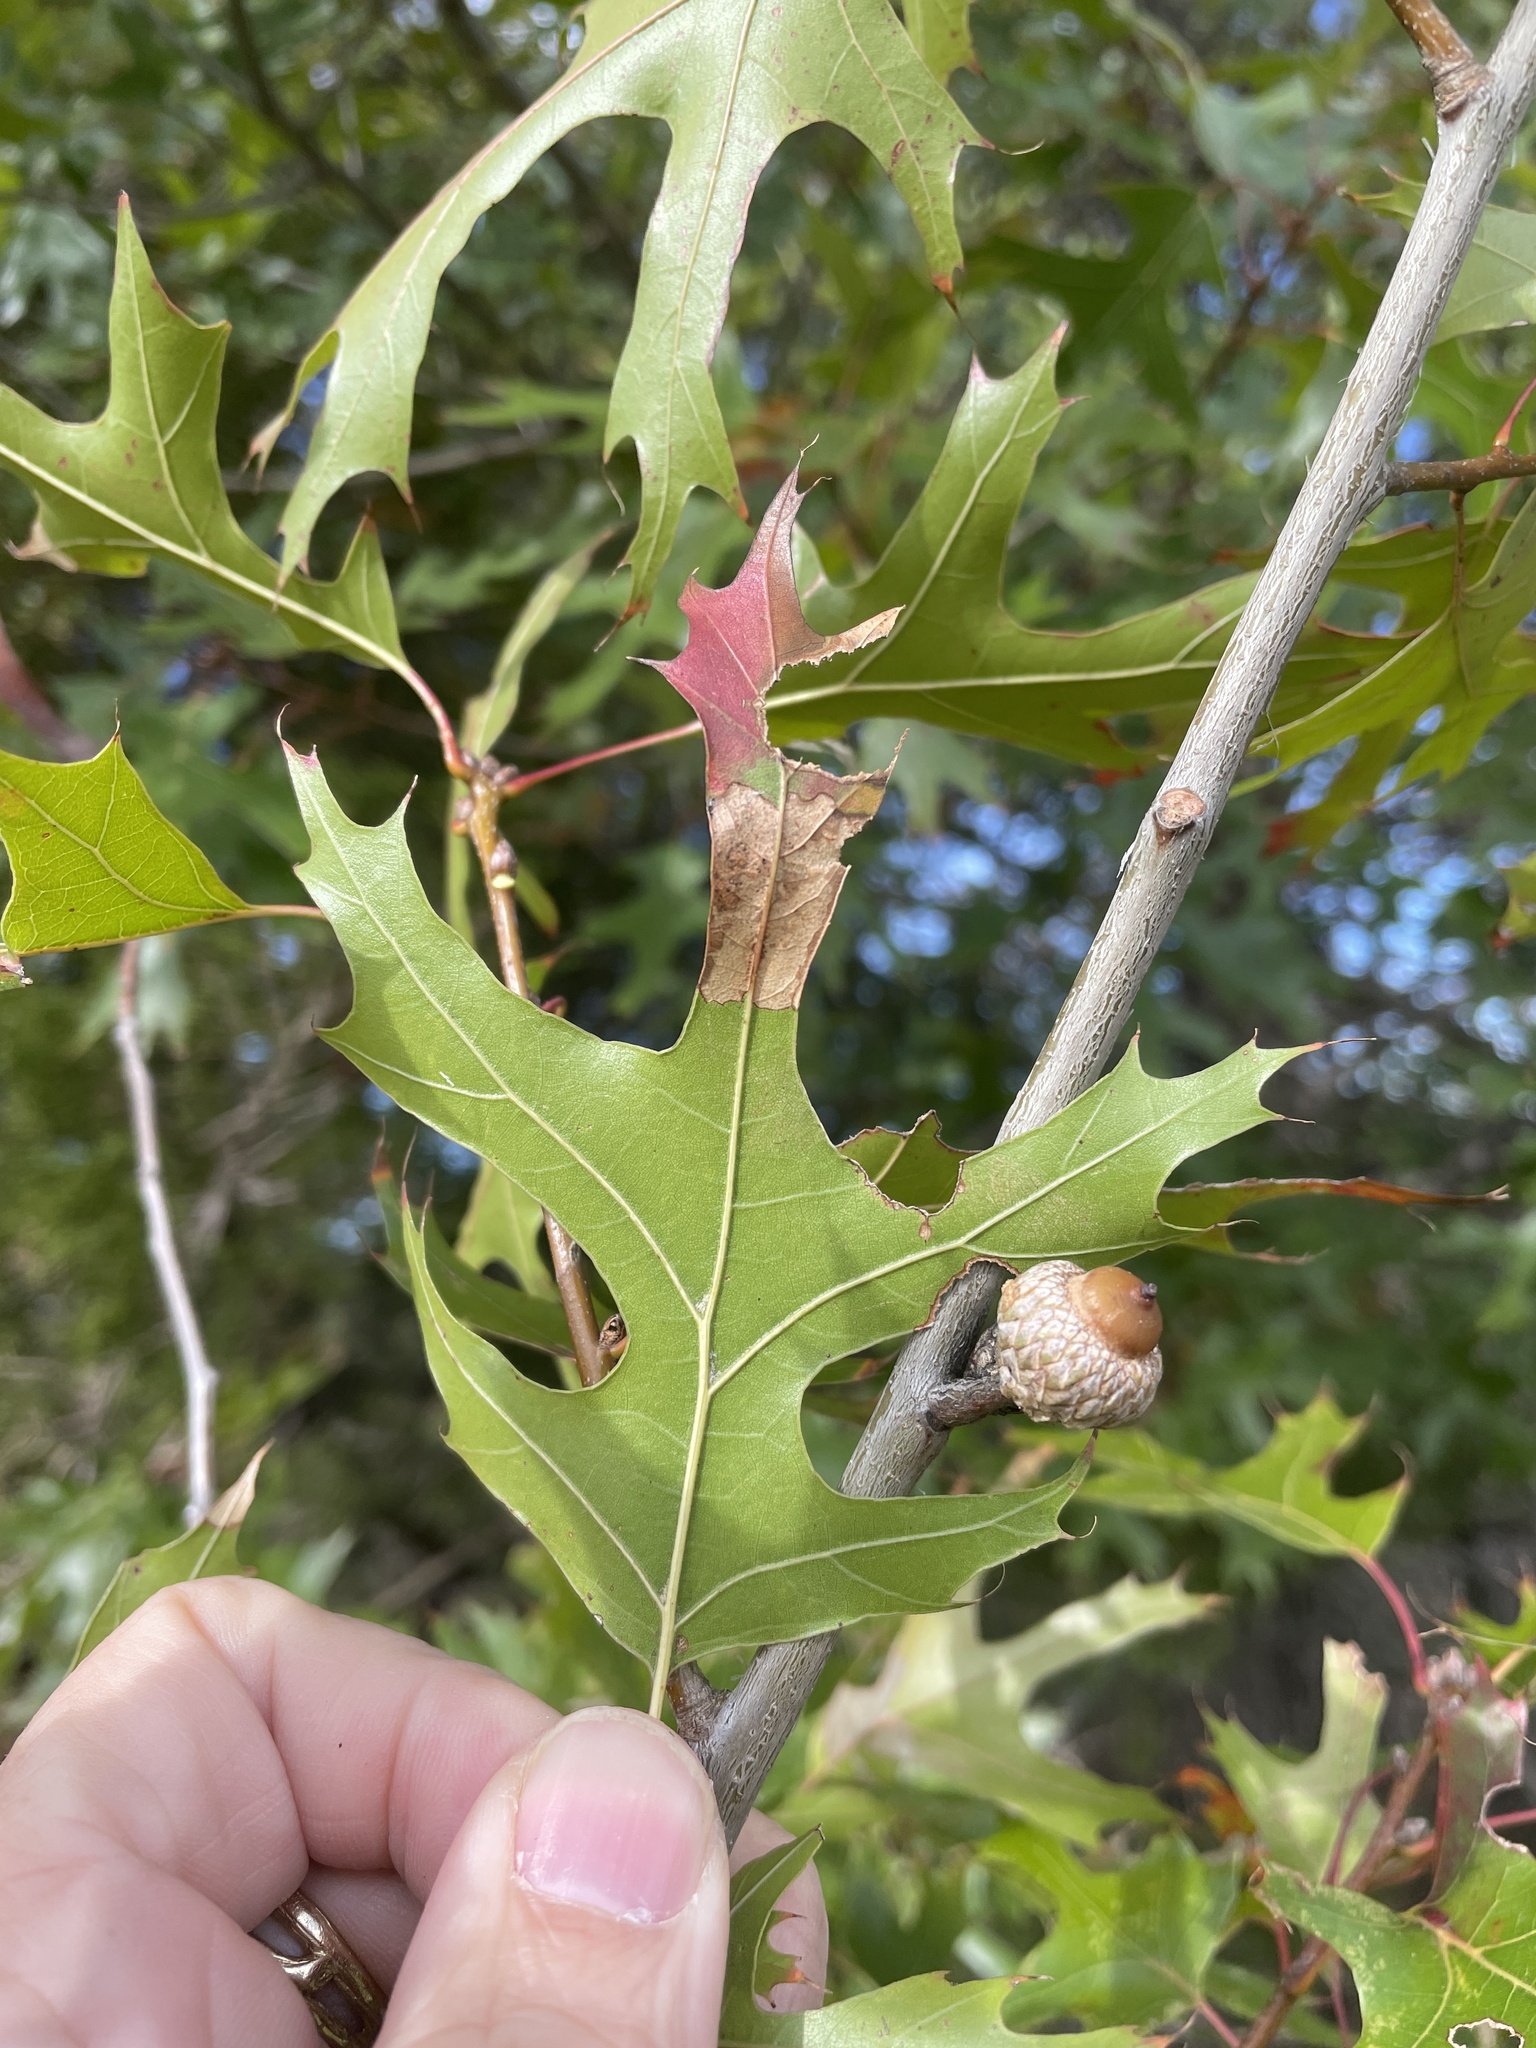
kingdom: Plantae
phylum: Tracheophyta
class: Magnoliopsida
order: Fagales
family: Fagaceae
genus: Quercus
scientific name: Quercus buckleyi
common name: Buckley oak
